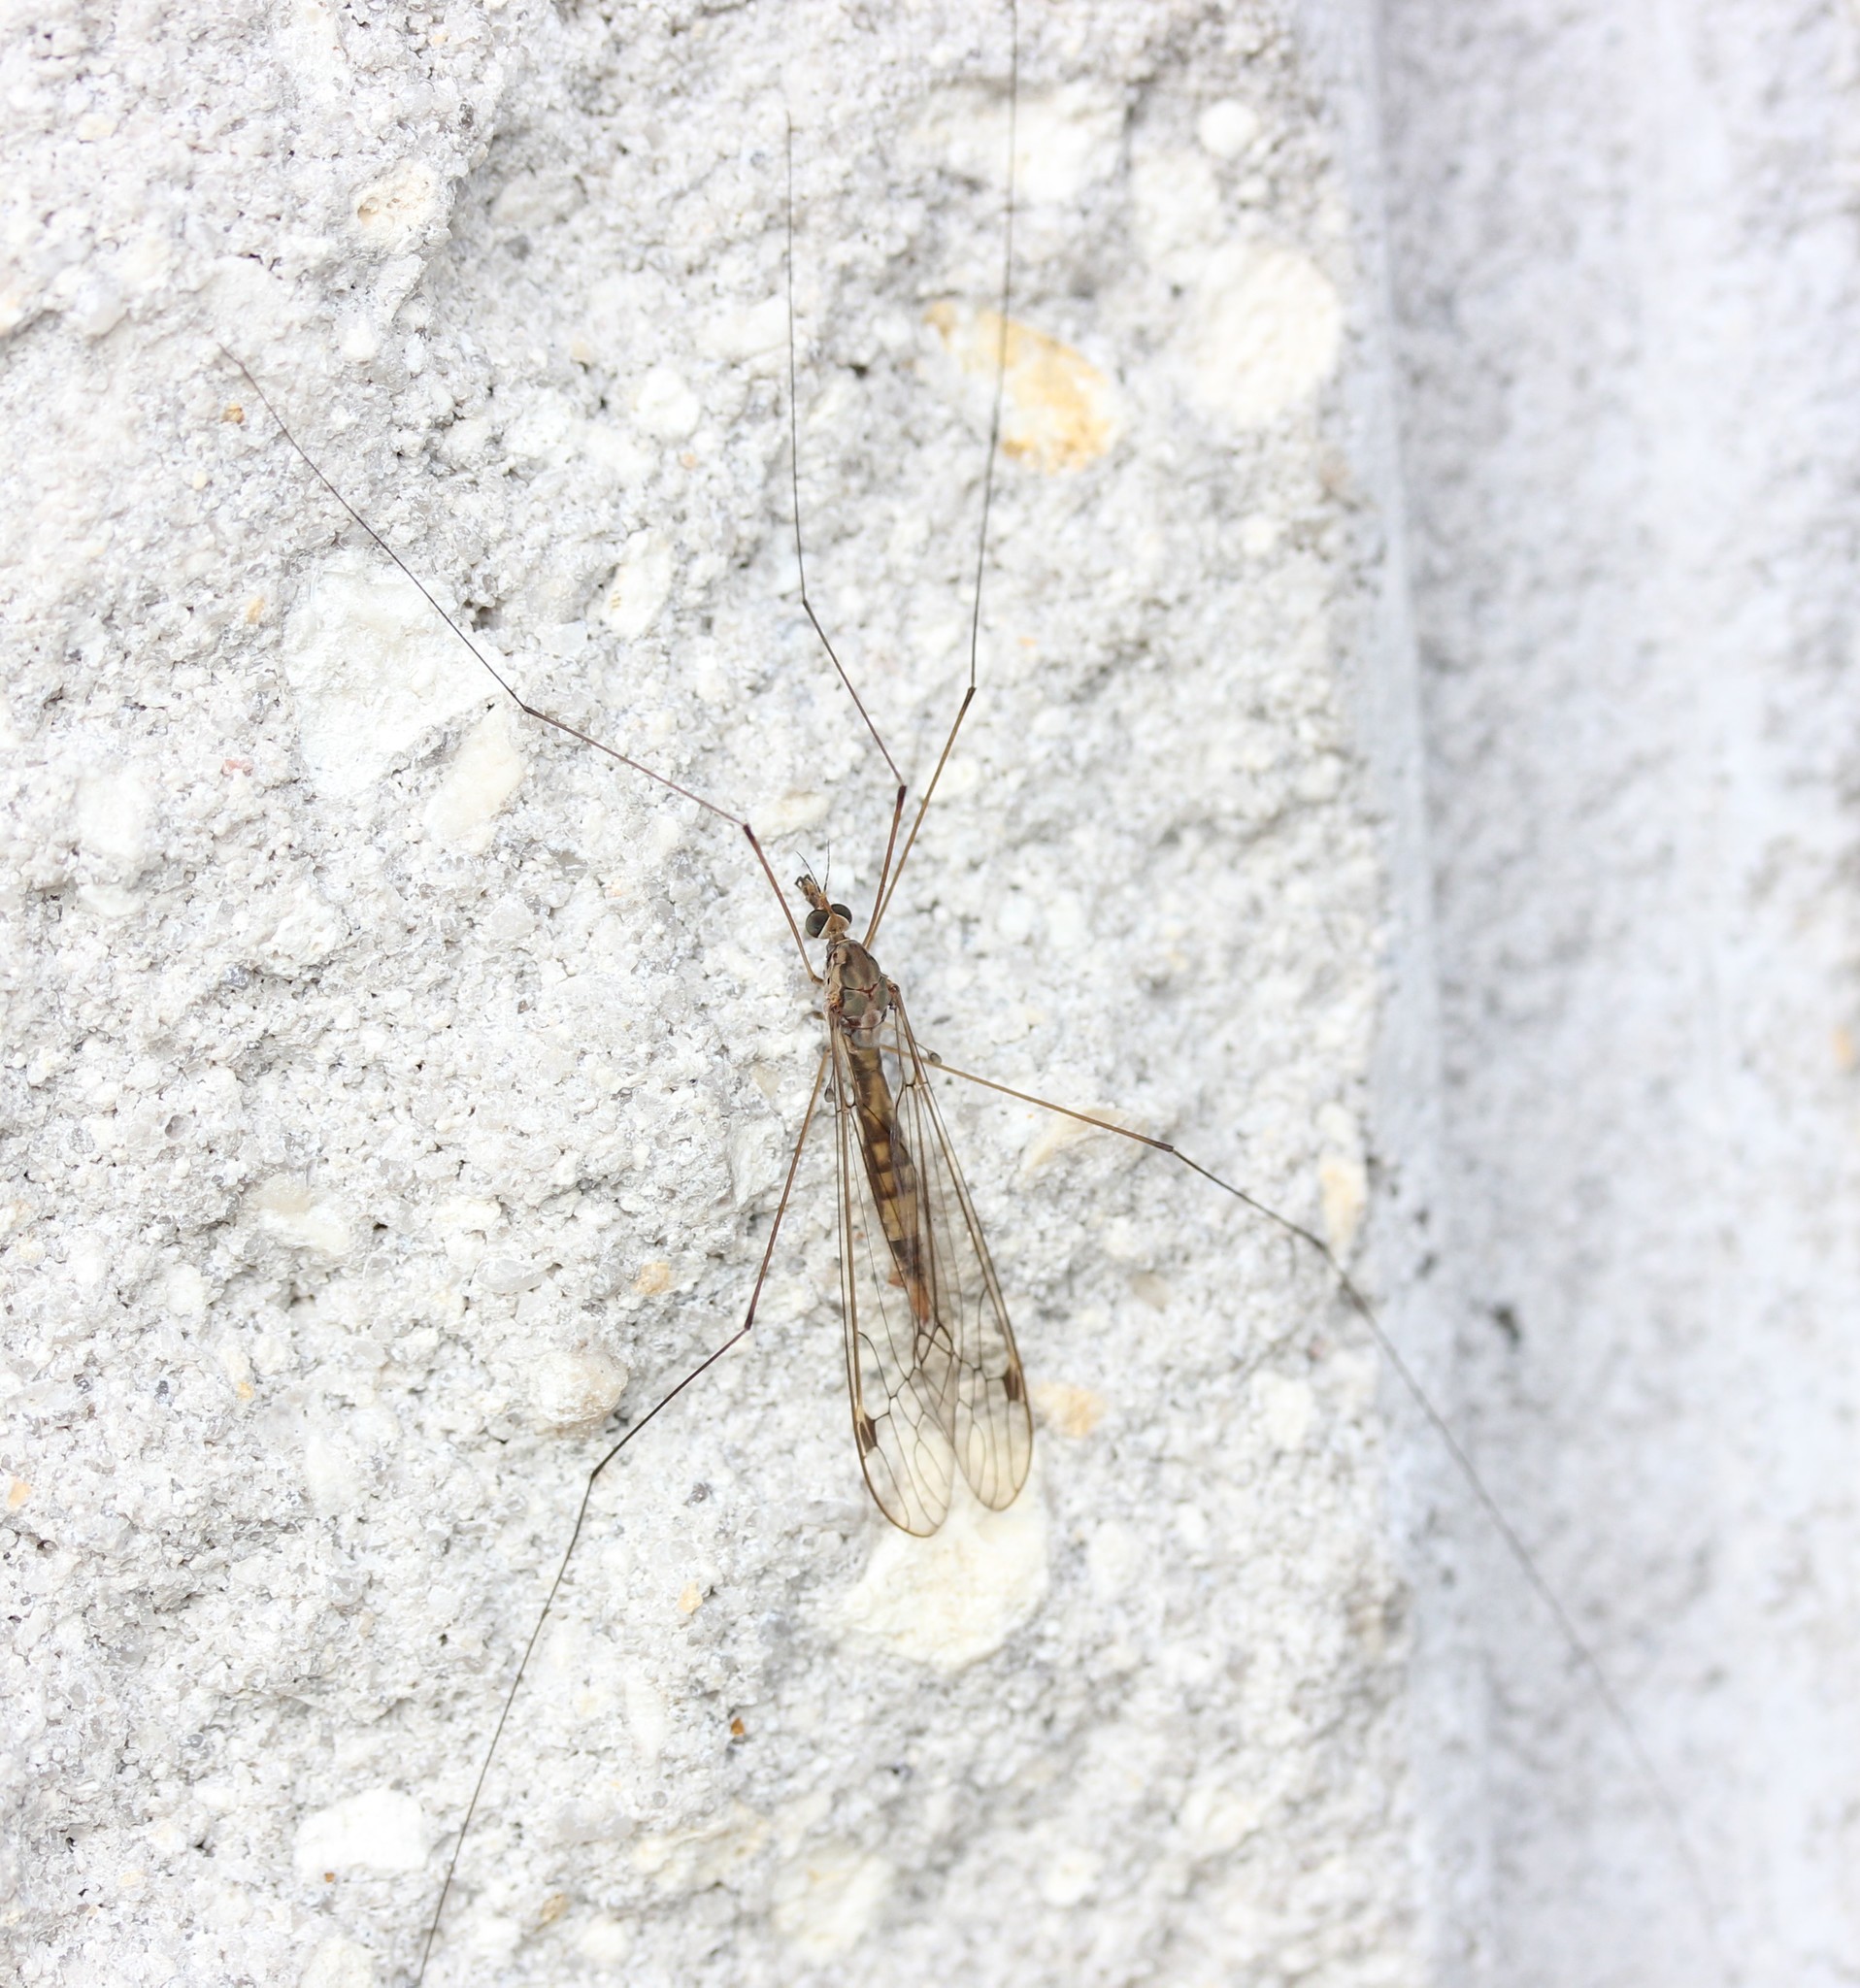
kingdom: Animalia
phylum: Arthropoda
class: Insecta
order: Diptera
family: Tipulidae
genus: Maekistocera
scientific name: Maekistocera longipennis
